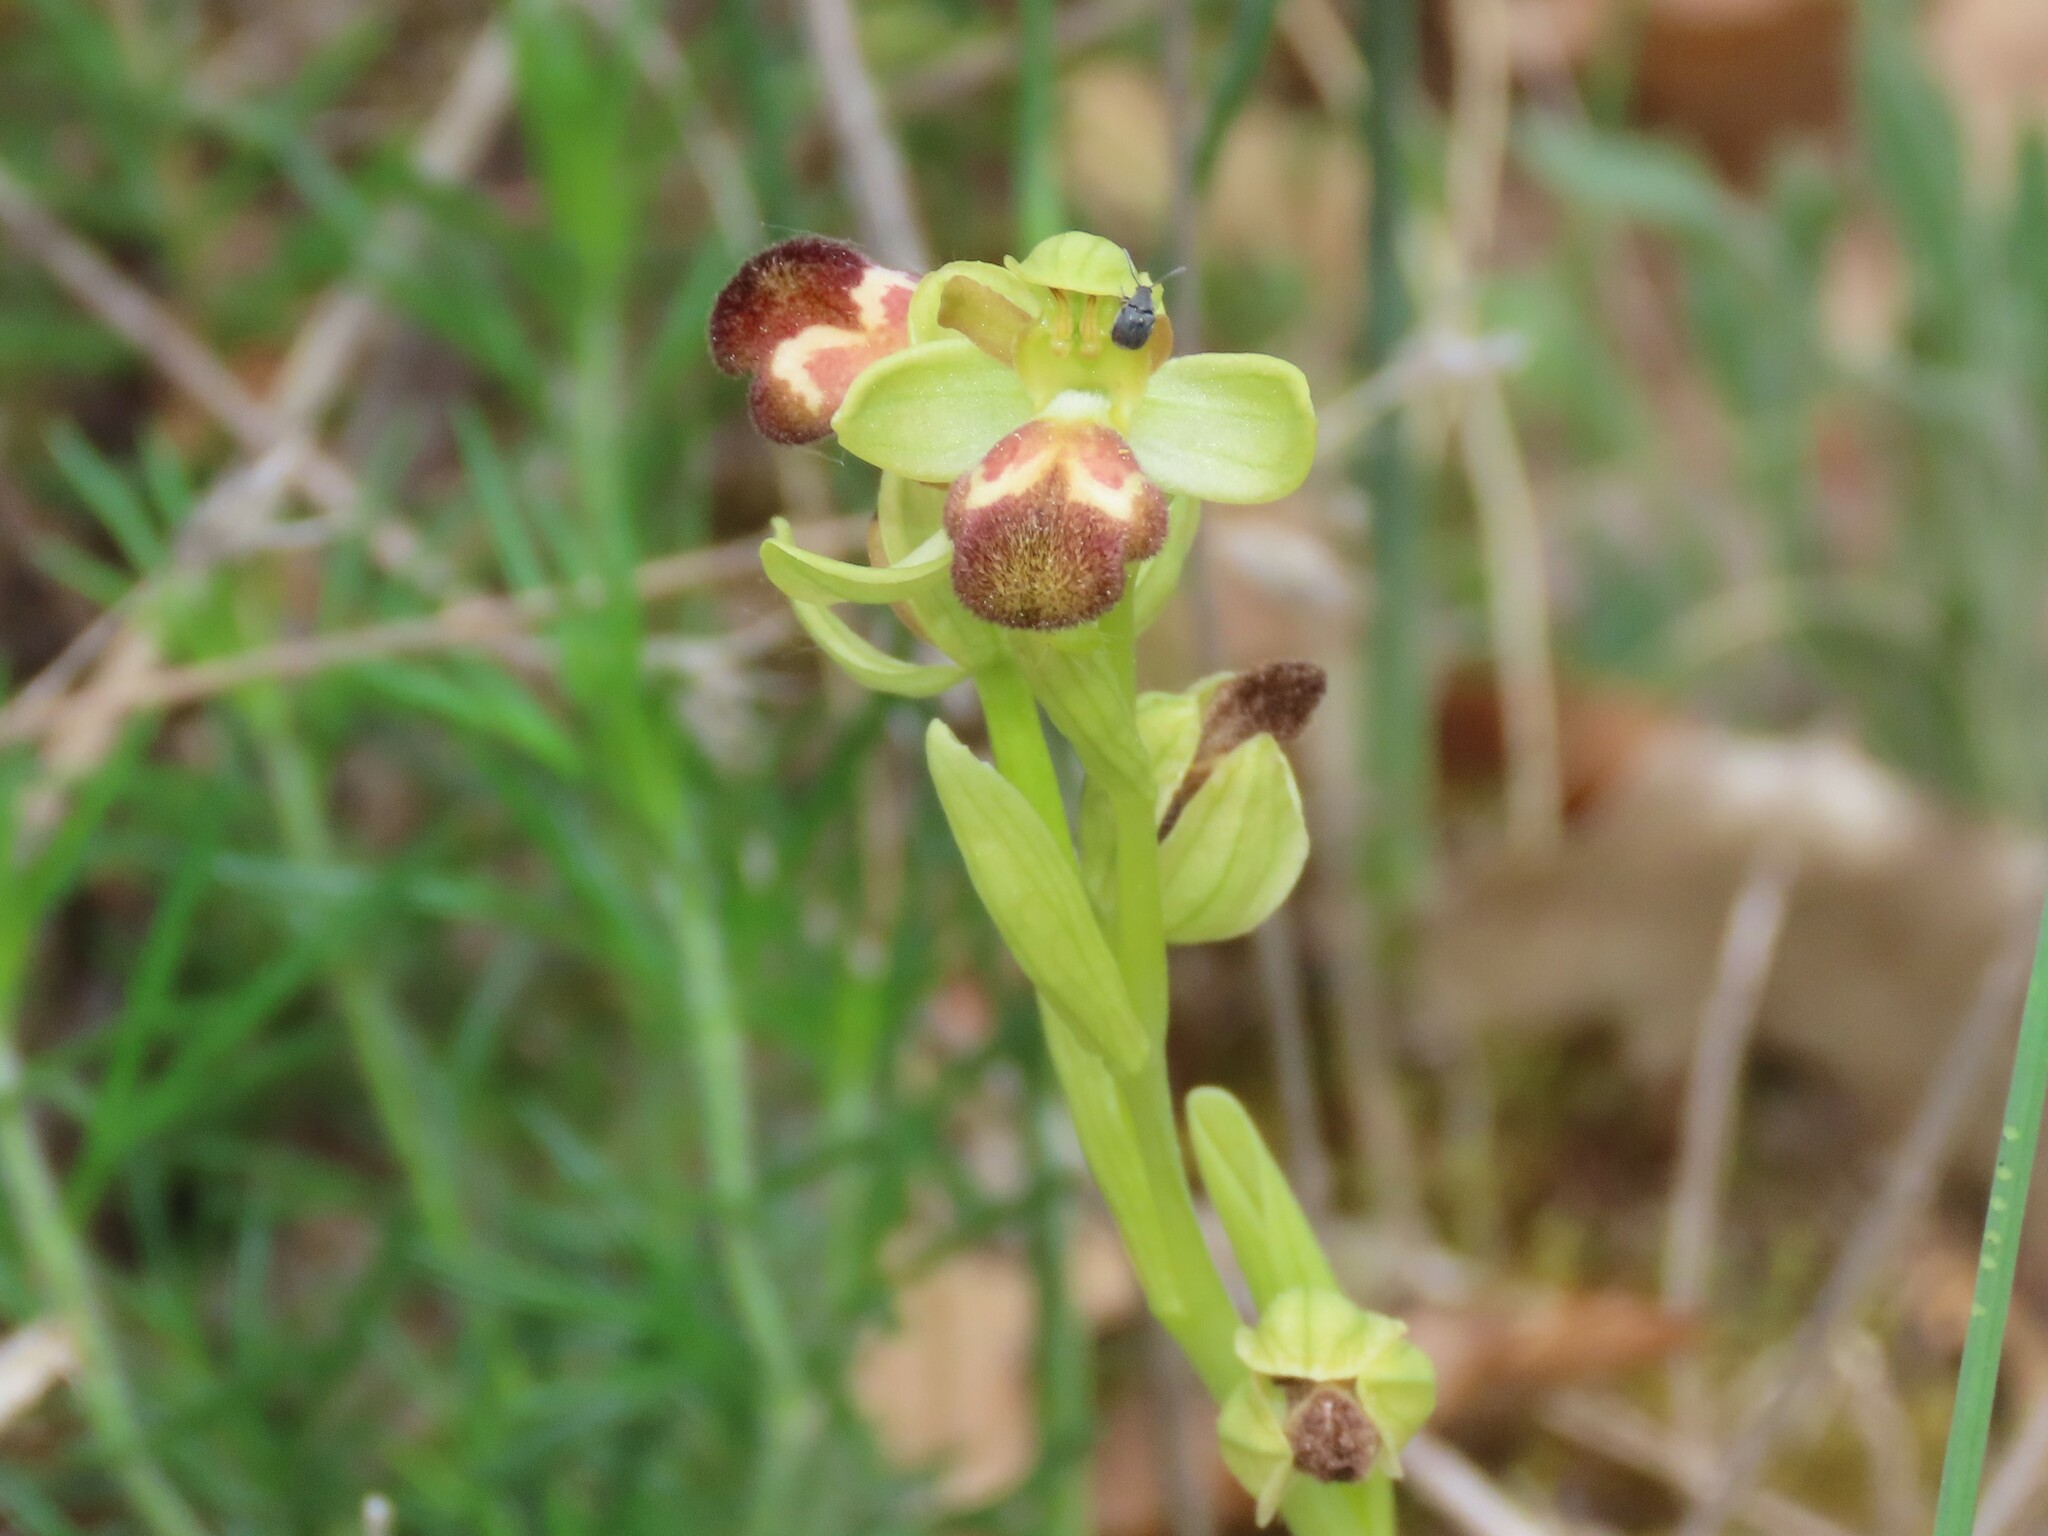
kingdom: Plantae
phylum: Tracheophyta
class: Liliopsida
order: Asparagales
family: Orchidaceae
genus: Ophrys
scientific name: Ophrys omegaifera
